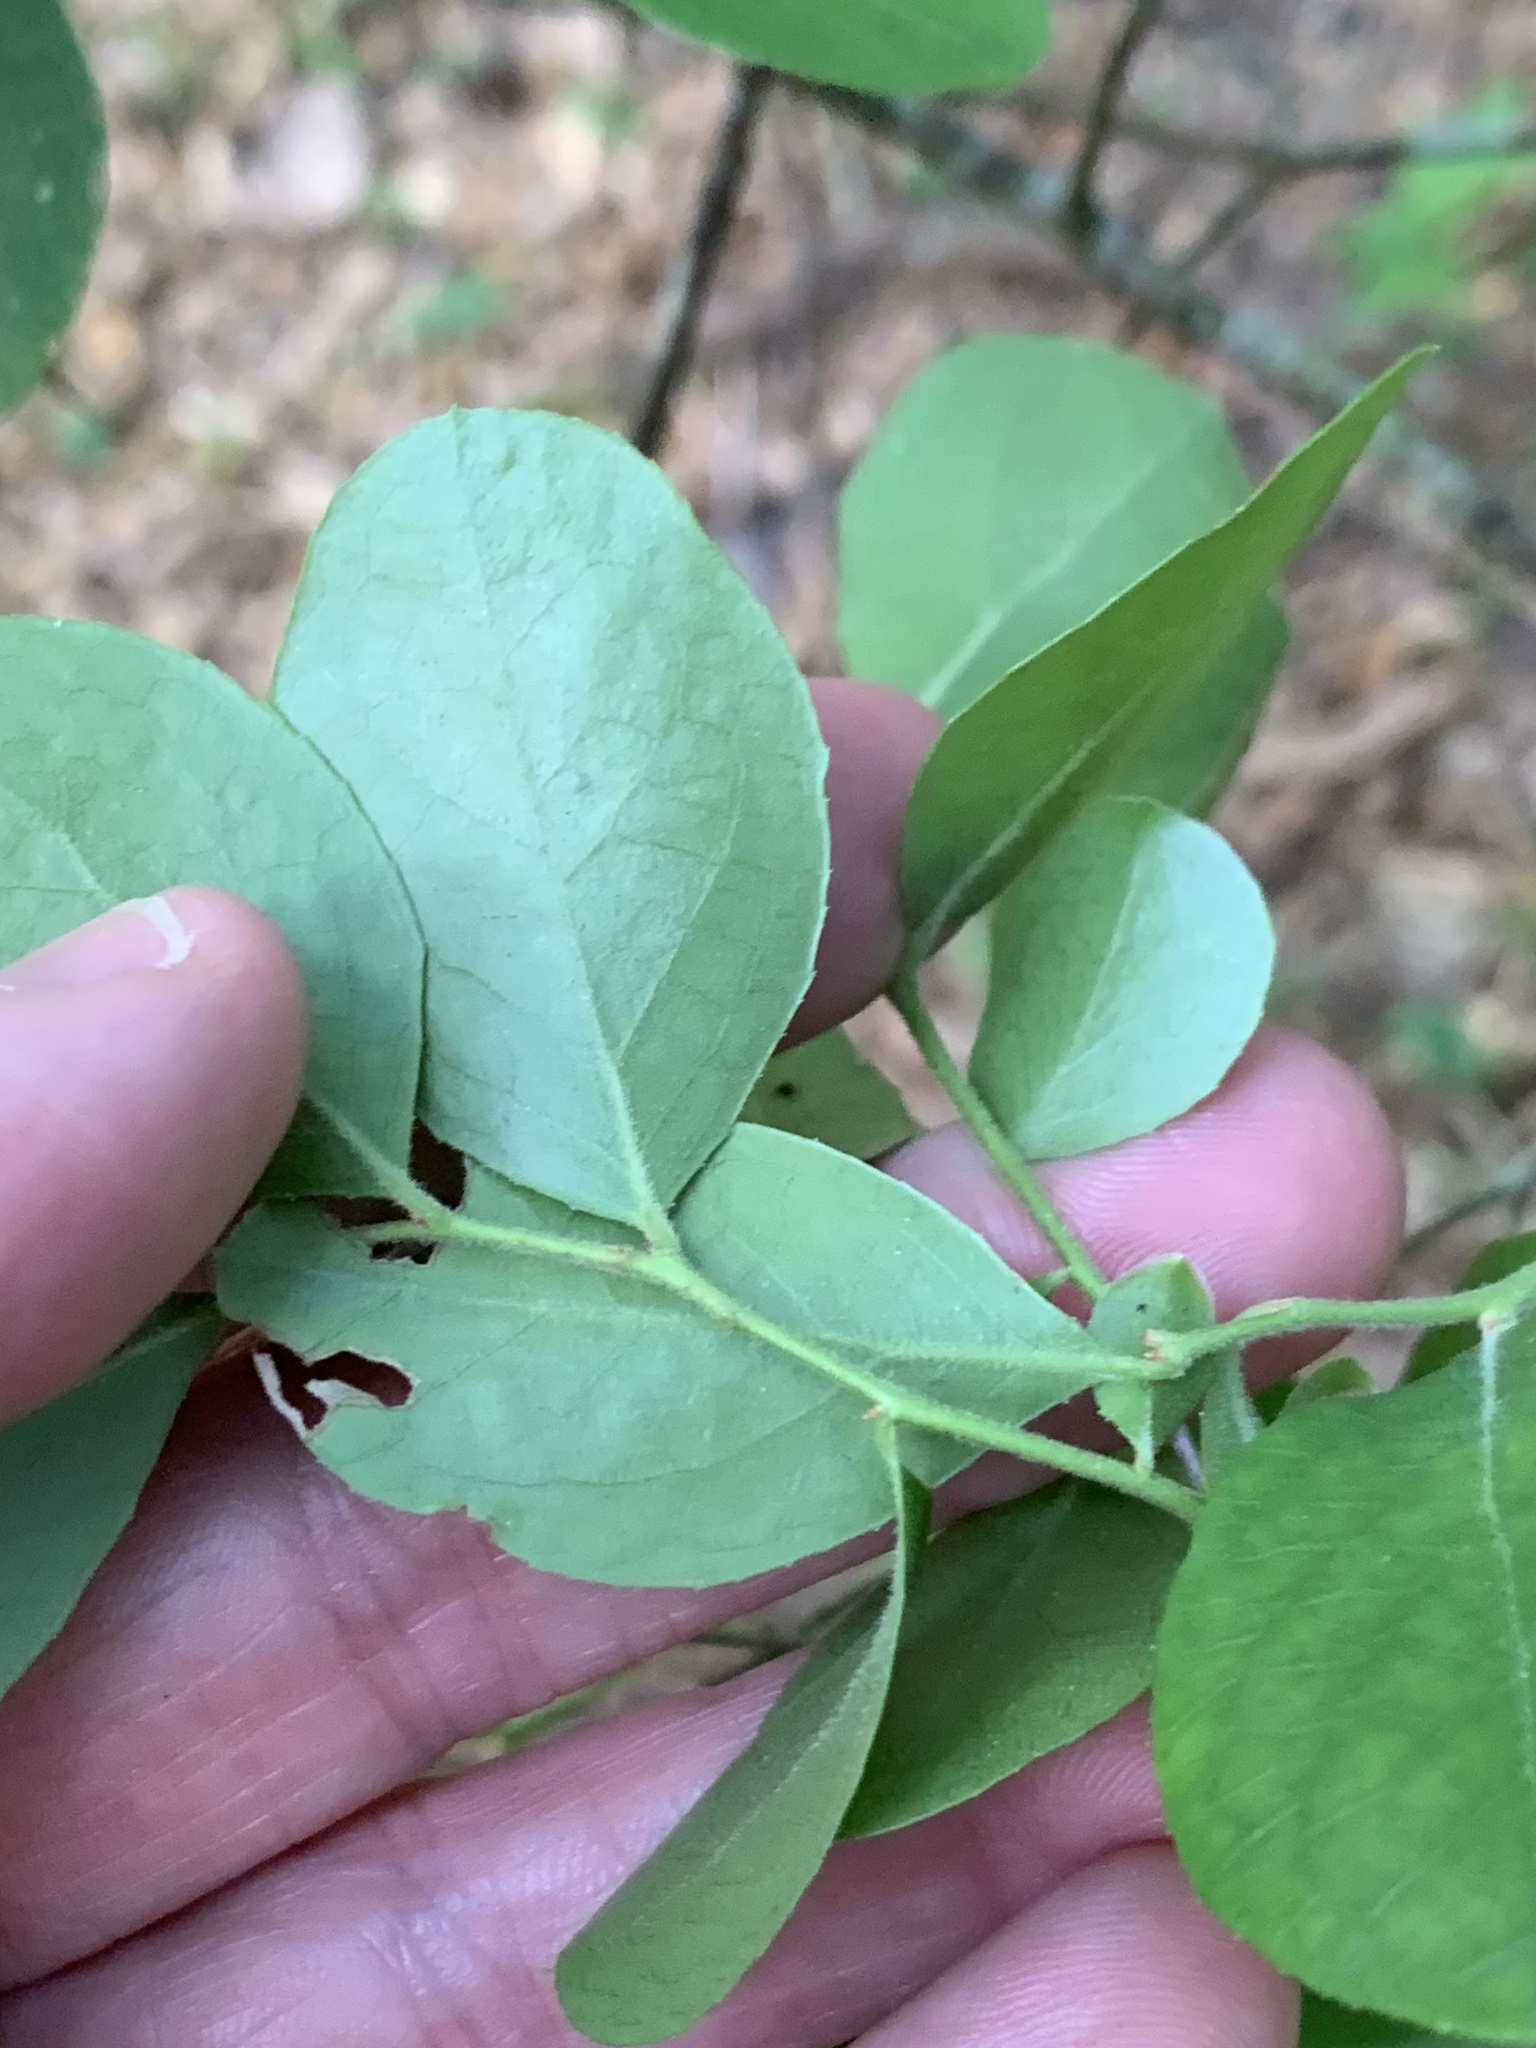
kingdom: Plantae
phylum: Tracheophyta
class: Magnoliopsida
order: Ericales
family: Ericaceae
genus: Vaccinium
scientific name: Vaccinium arboreum
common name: Farkleberry
